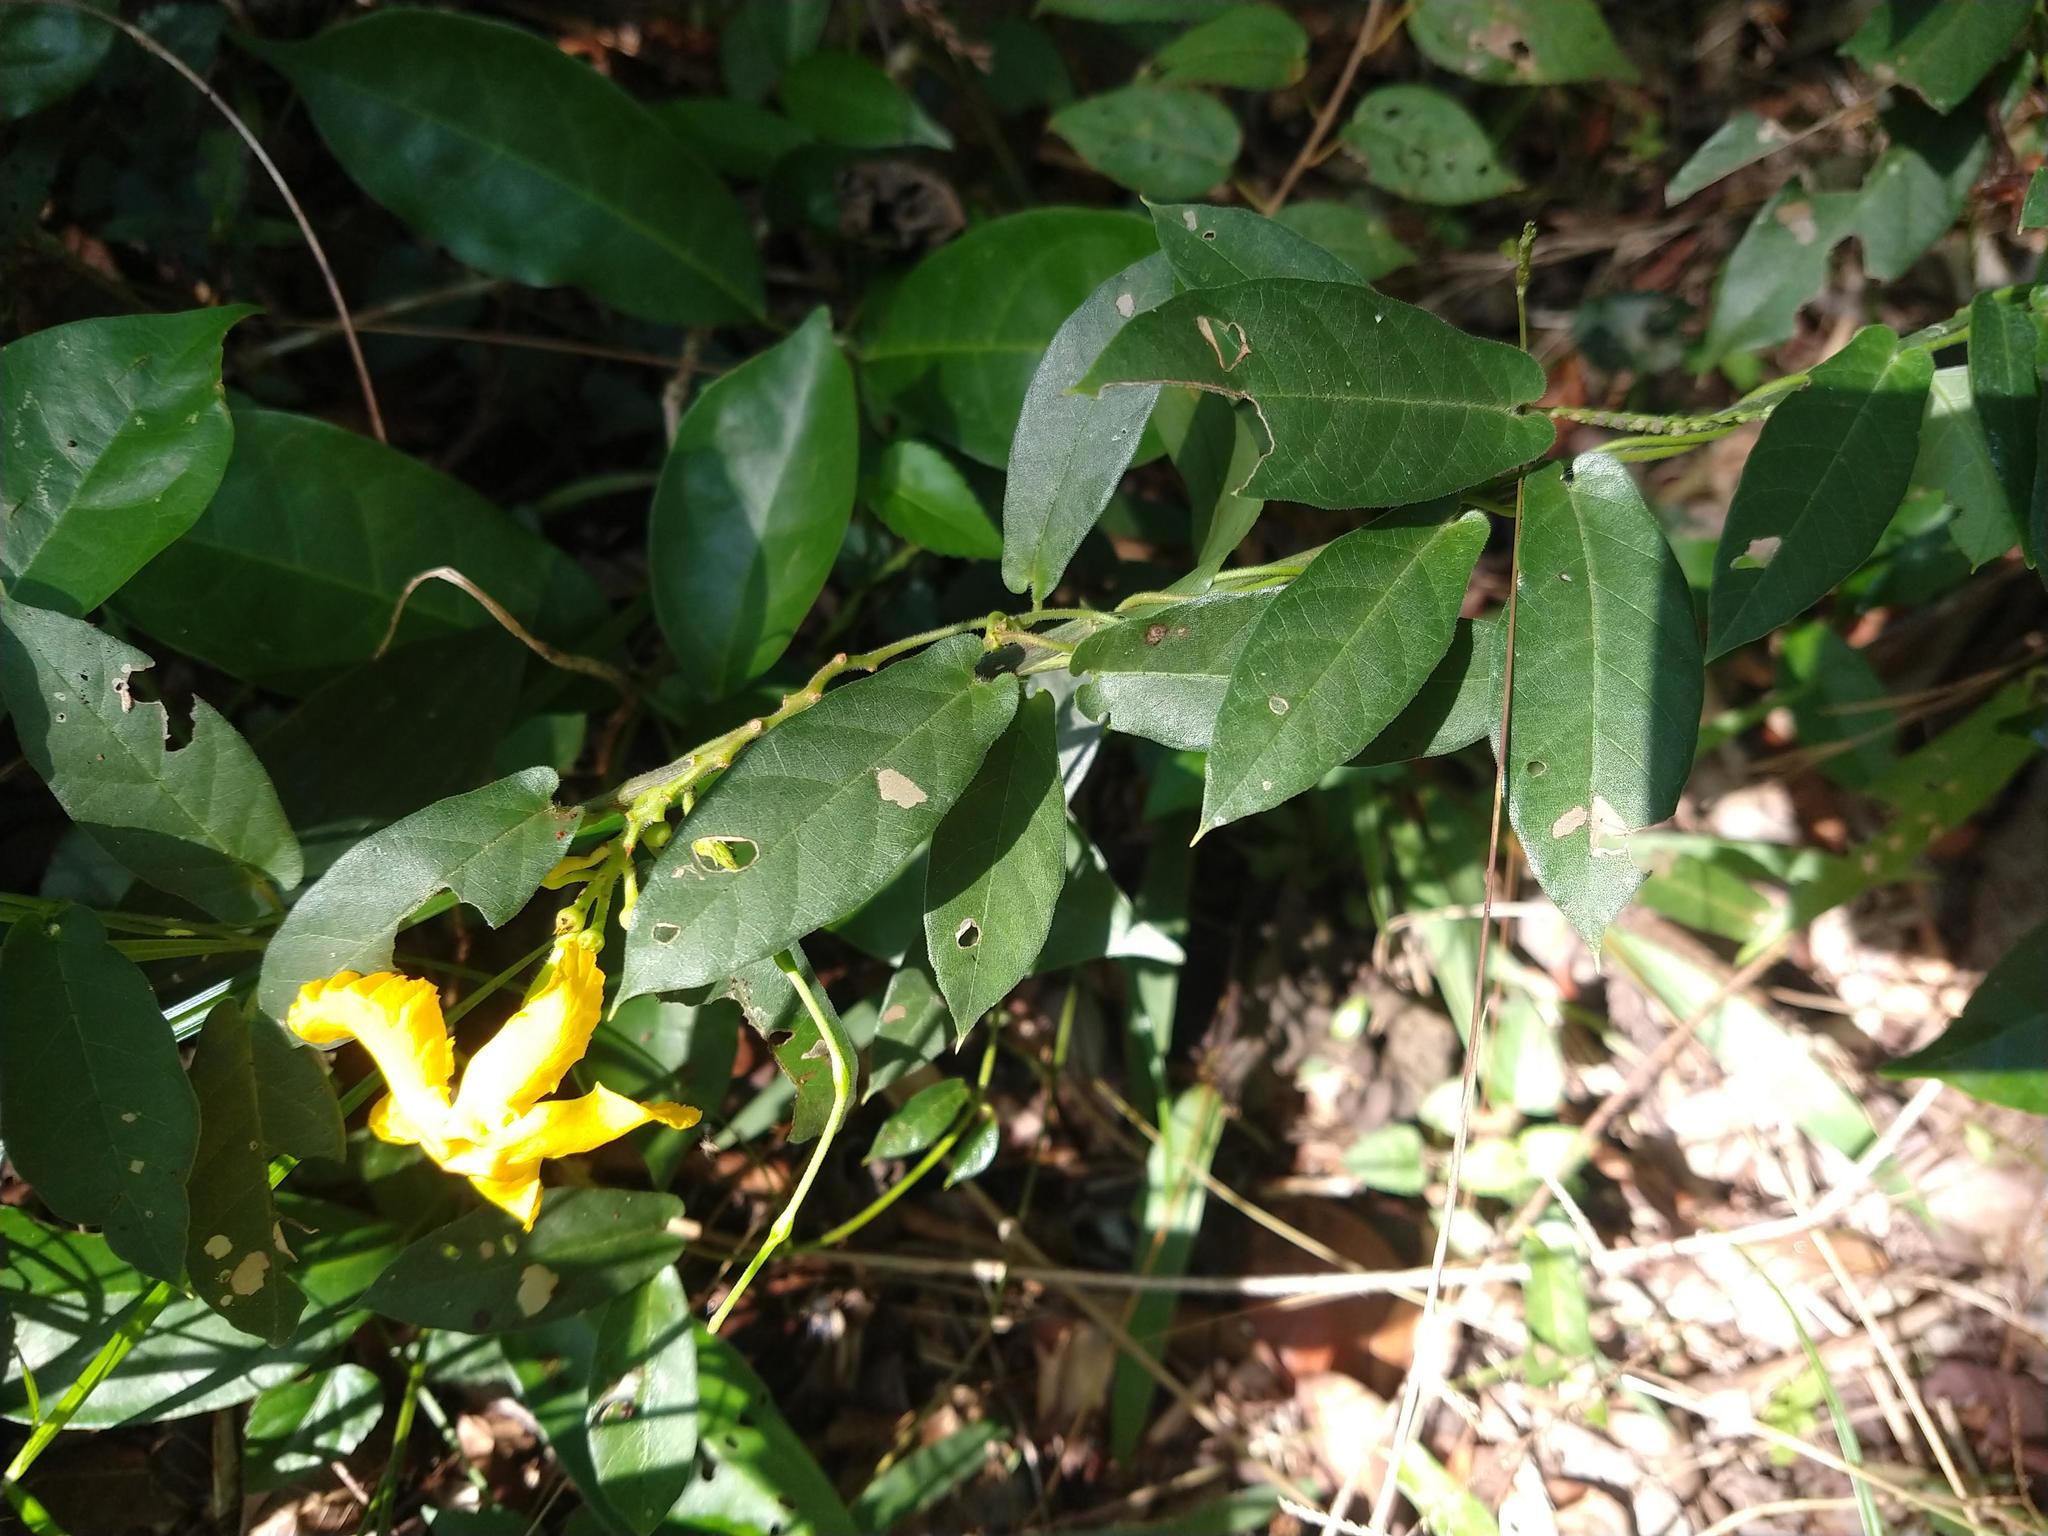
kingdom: Plantae
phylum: Tracheophyta
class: Magnoliopsida
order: Gentianales
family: Apocynaceae
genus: Mandevilla
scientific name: Mandevilla subsagittata
